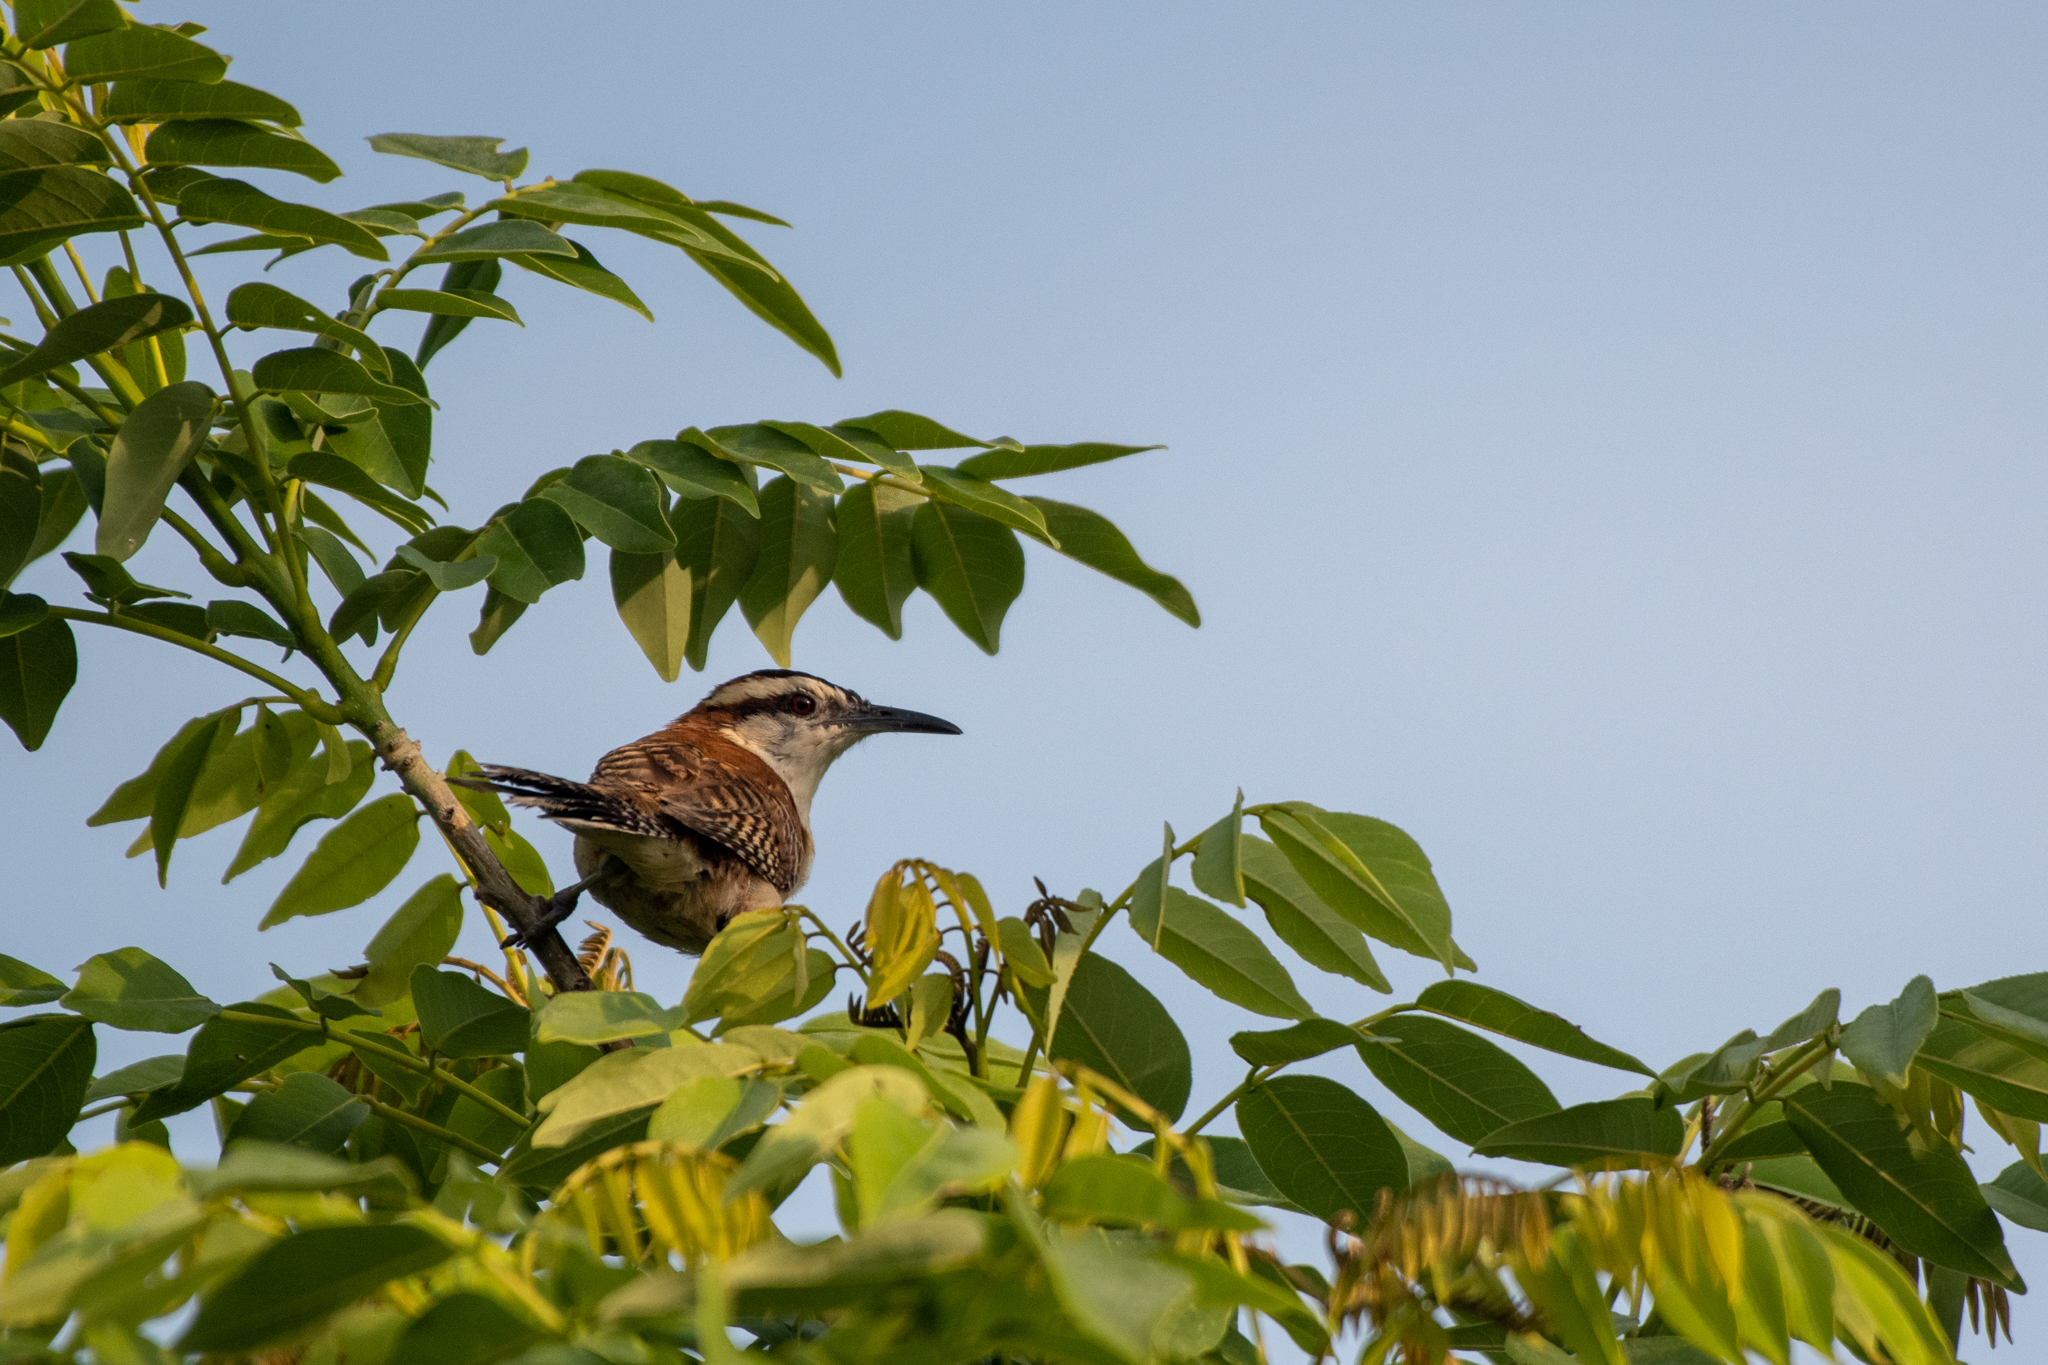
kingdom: Animalia
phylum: Chordata
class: Aves
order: Passeriformes
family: Troglodytidae
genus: Campylorhynchus
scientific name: Campylorhynchus rufinucha
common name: Rufous-naped wren
